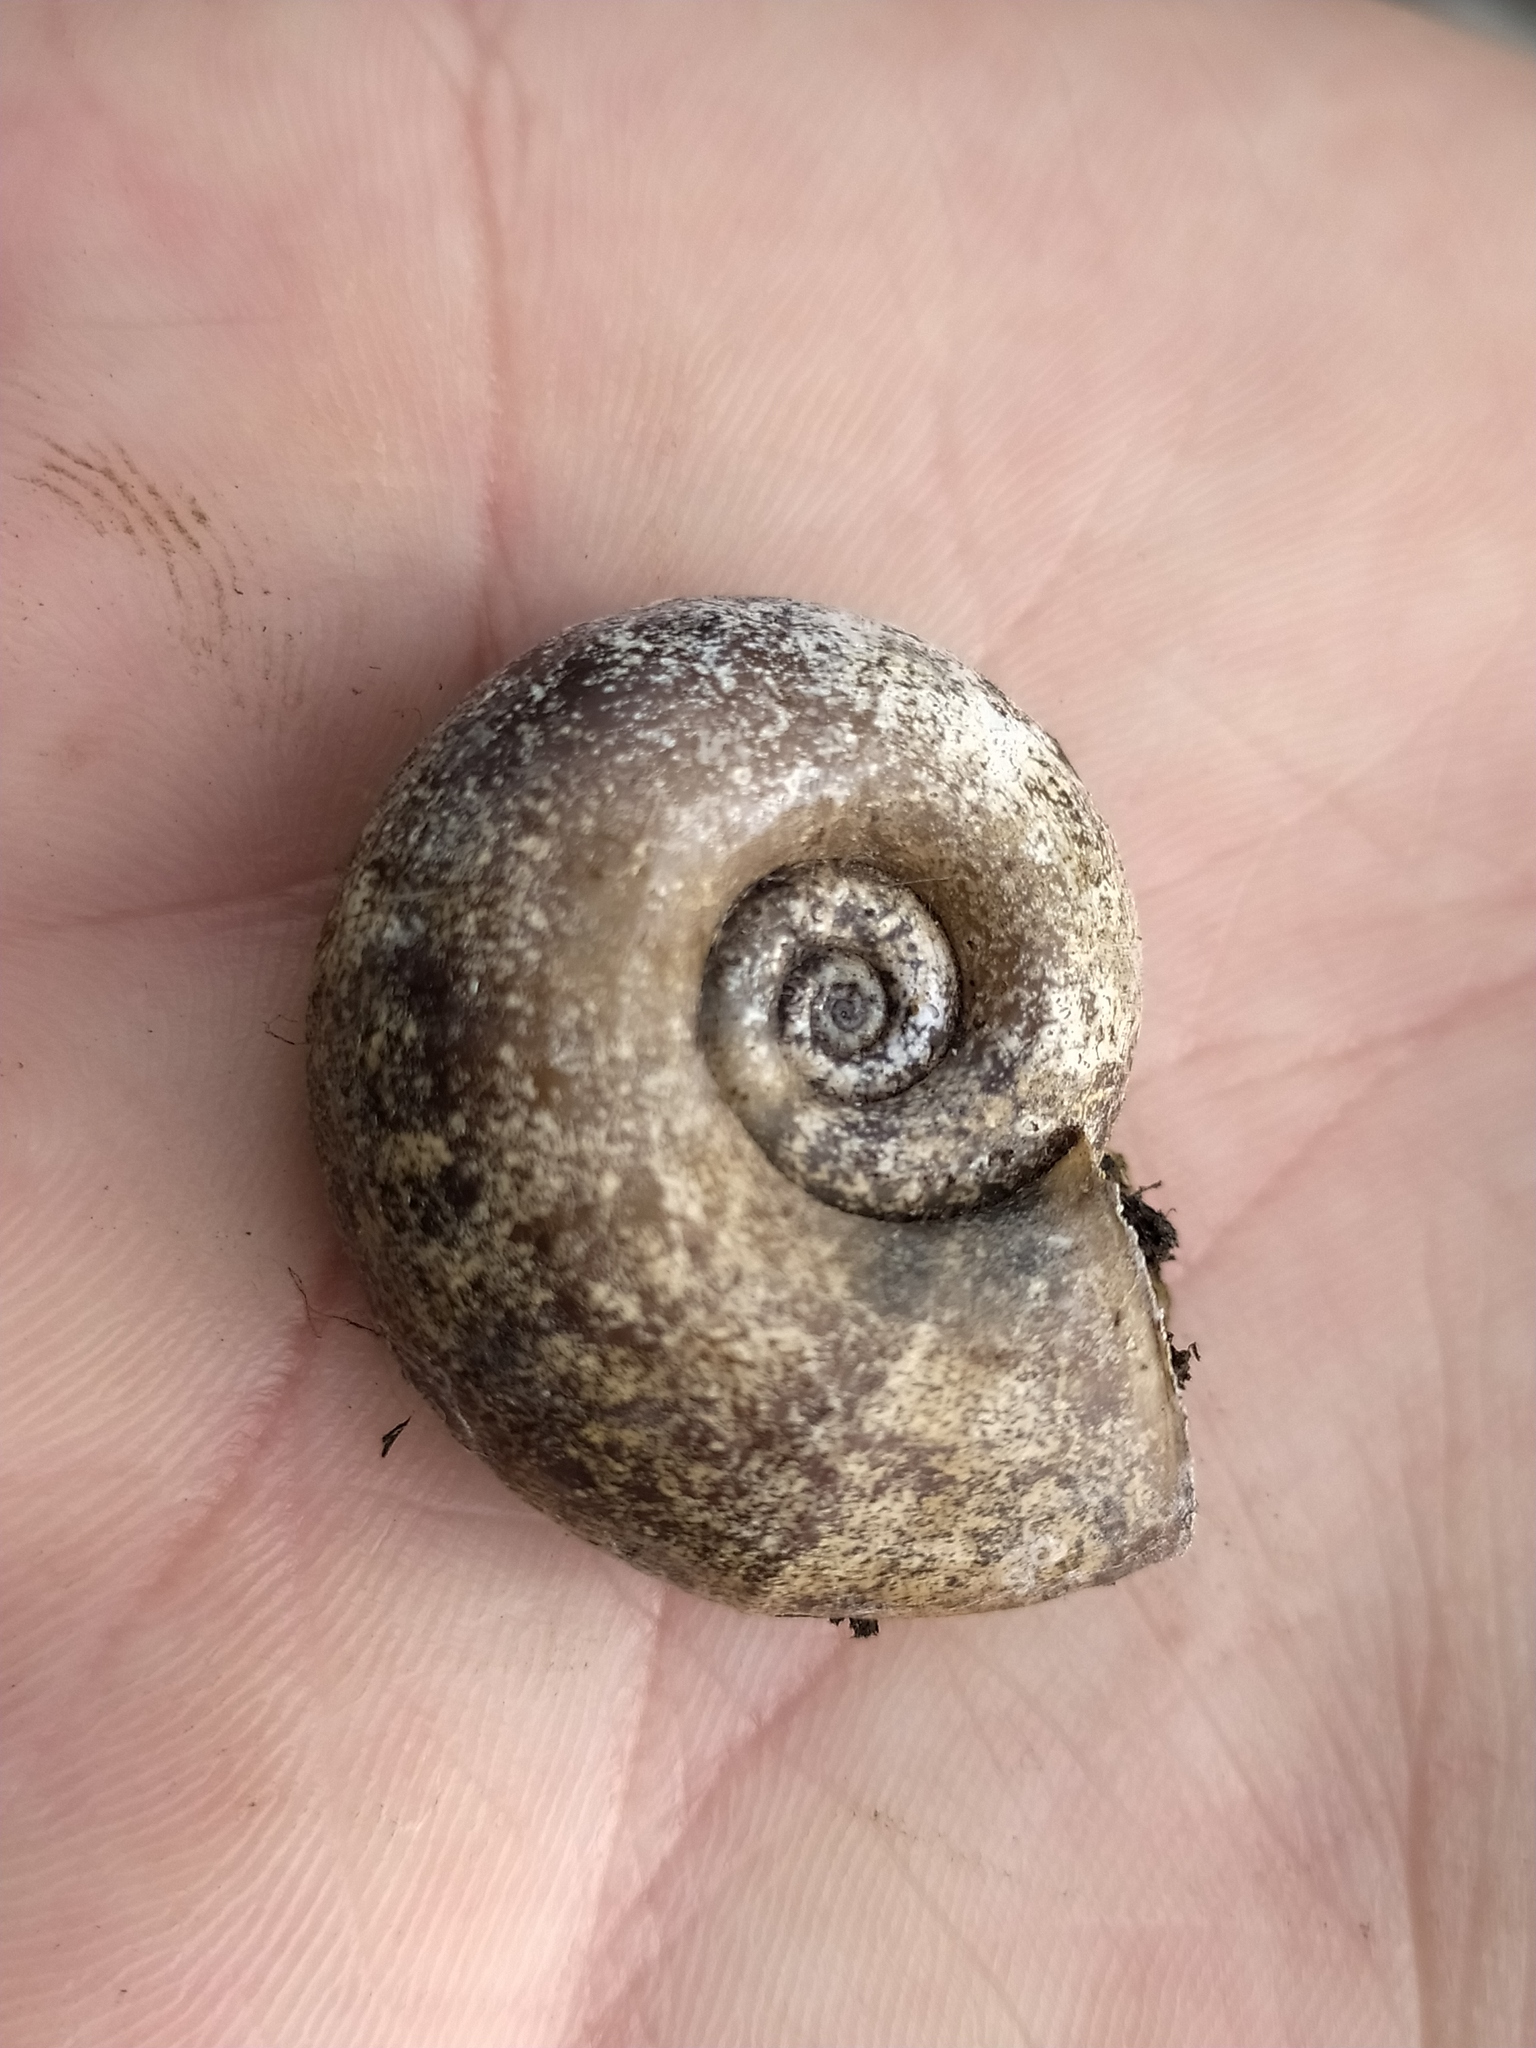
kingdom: Animalia
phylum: Mollusca
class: Gastropoda
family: Planorbidae
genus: Planorbarius
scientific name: Planorbarius corneus
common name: Great ramshorn
